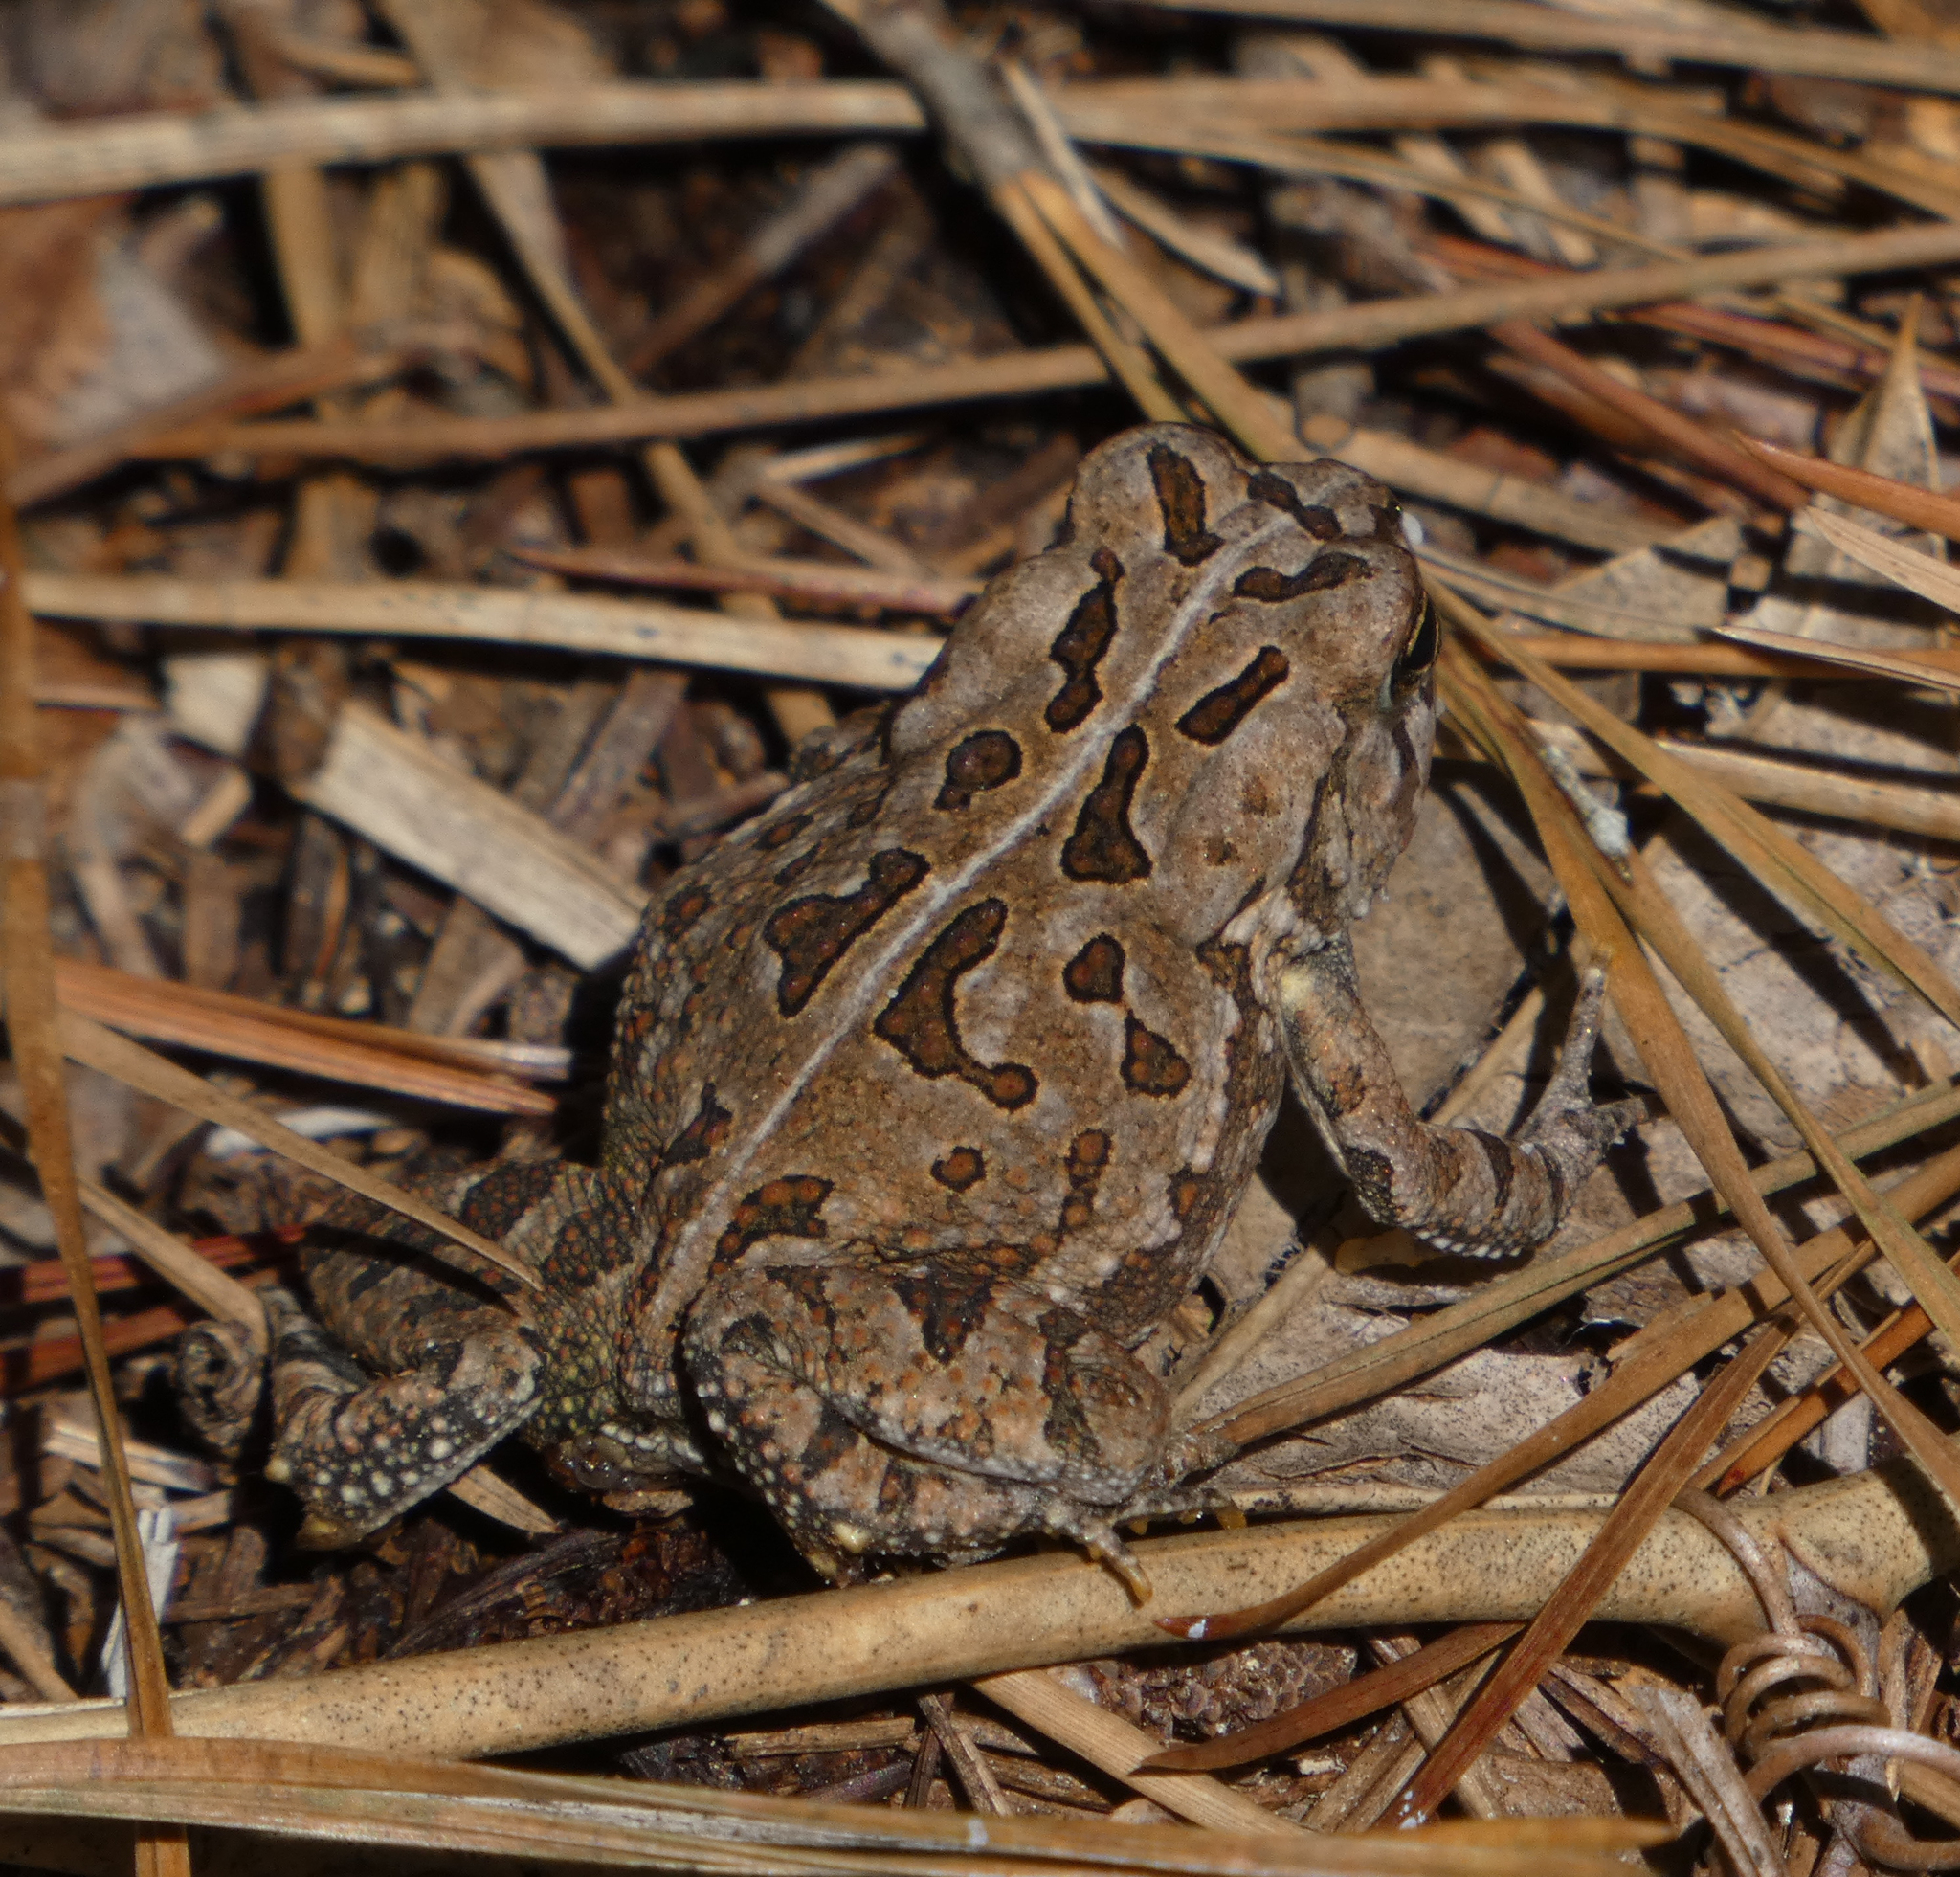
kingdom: Animalia
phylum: Chordata
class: Amphibia
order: Anura
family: Bufonidae
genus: Anaxyrus
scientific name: Anaxyrus fowleri
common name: Fowler's toad
